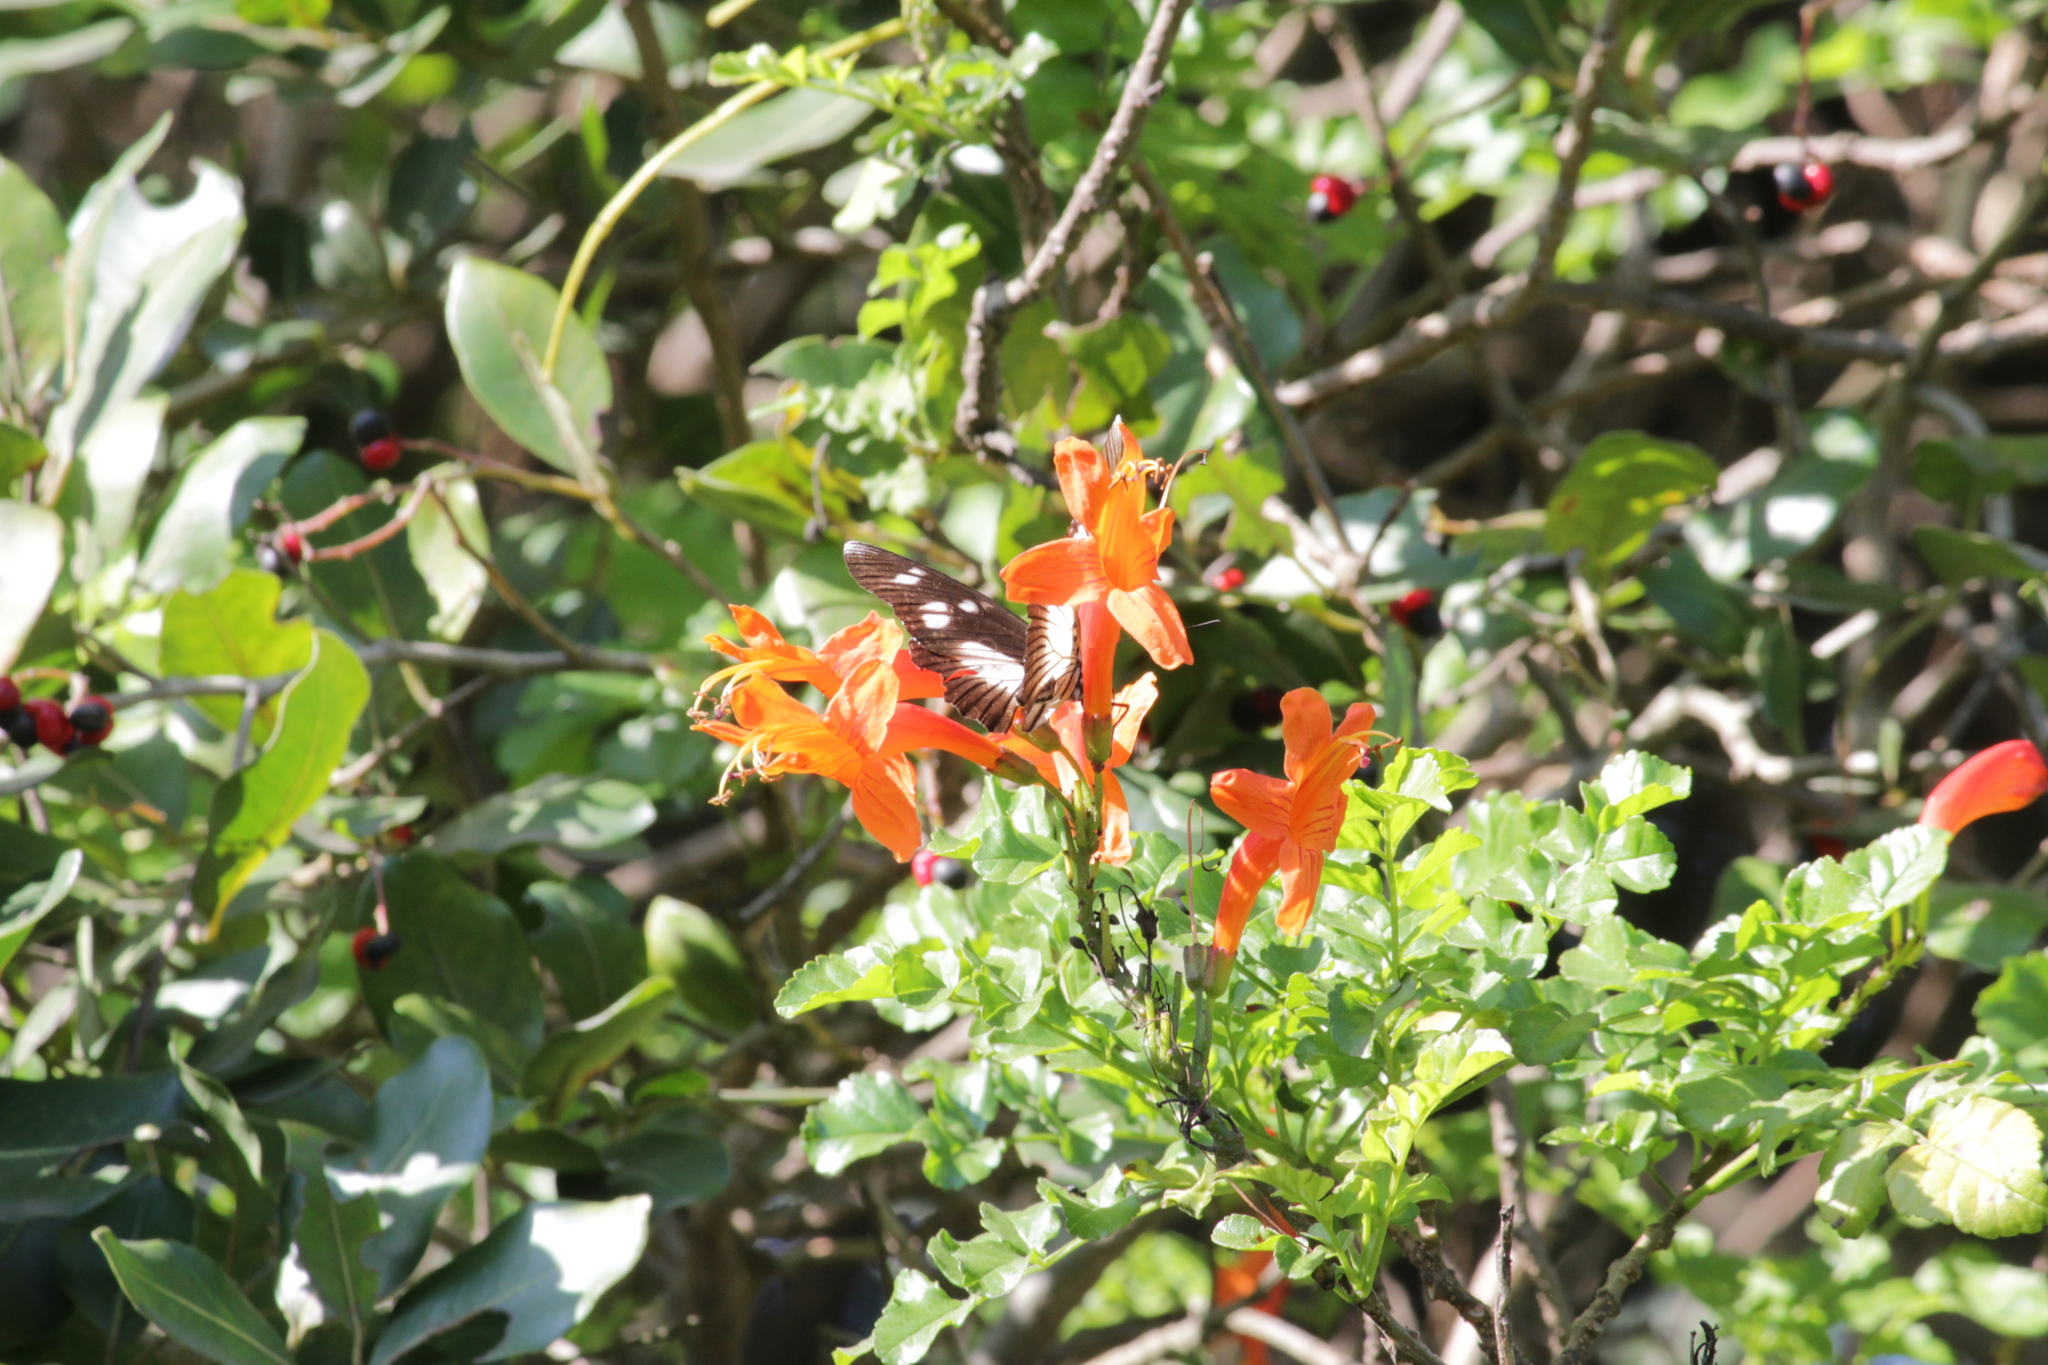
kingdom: Animalia
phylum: Arthropoda
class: Insecta
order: Lepidoptera
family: Nymphalidae
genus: Chloropoea
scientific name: Chloropoea lucretia
